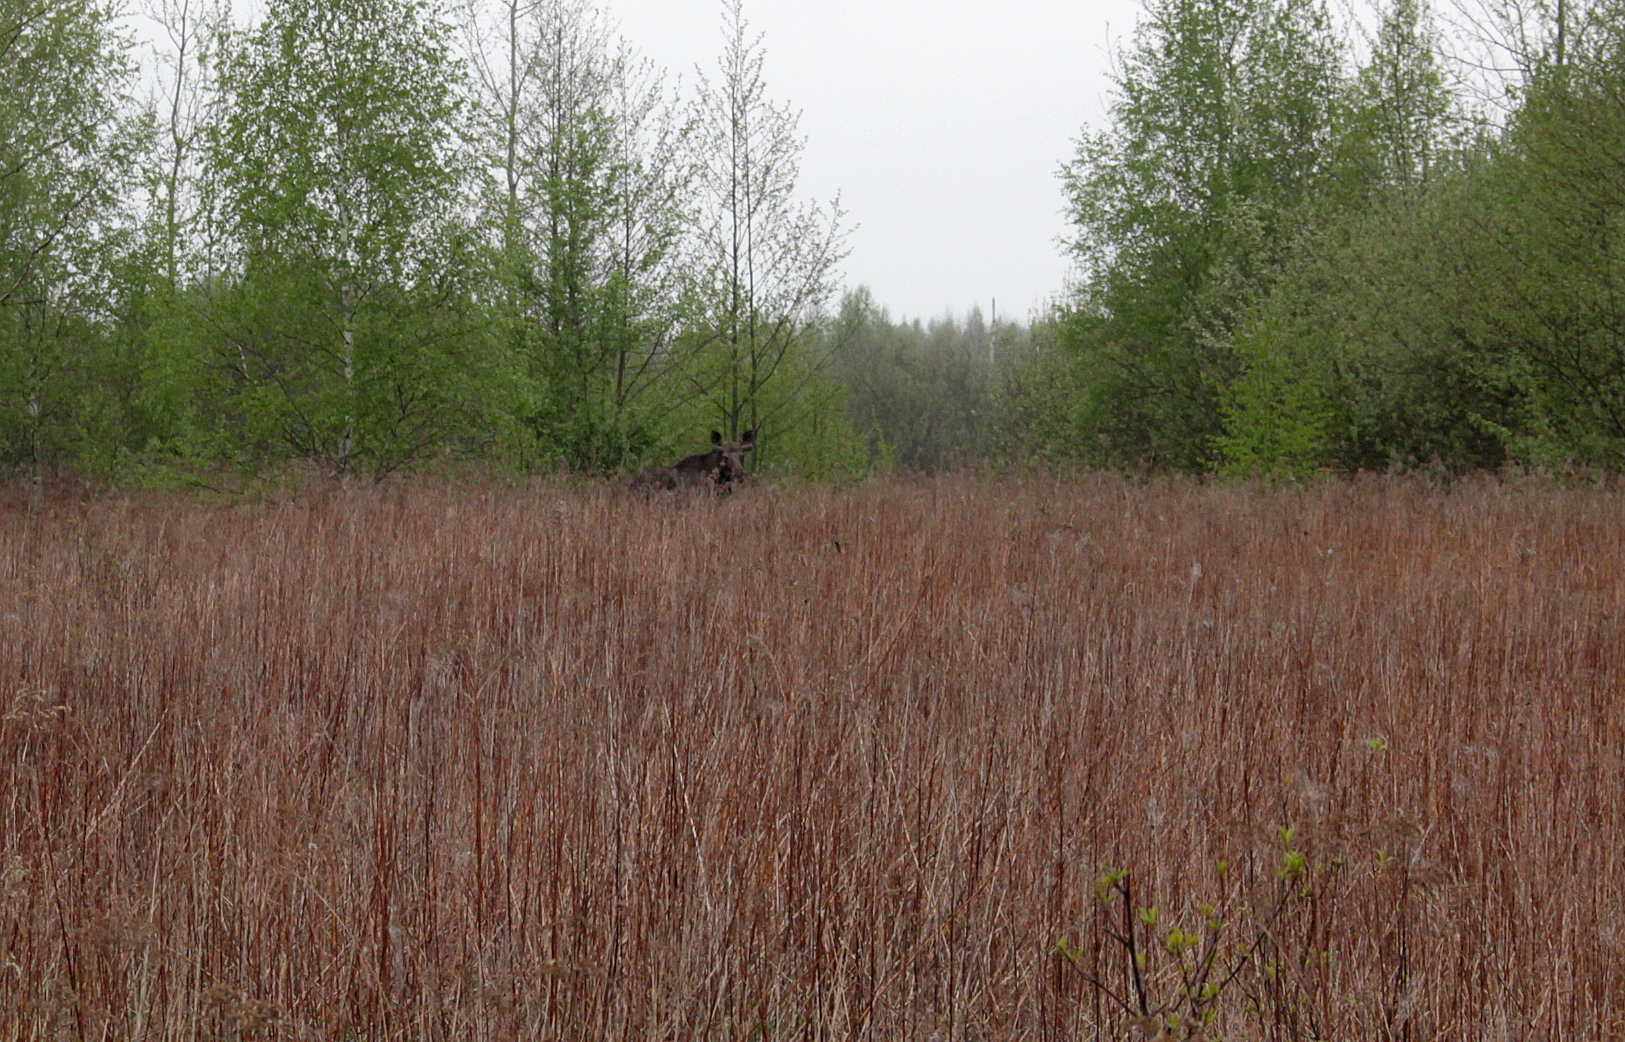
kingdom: Animalia
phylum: Chordata
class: Mammalia
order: Artiodactyla
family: Cervidae
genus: Alces
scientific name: Alces alces
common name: Moose
